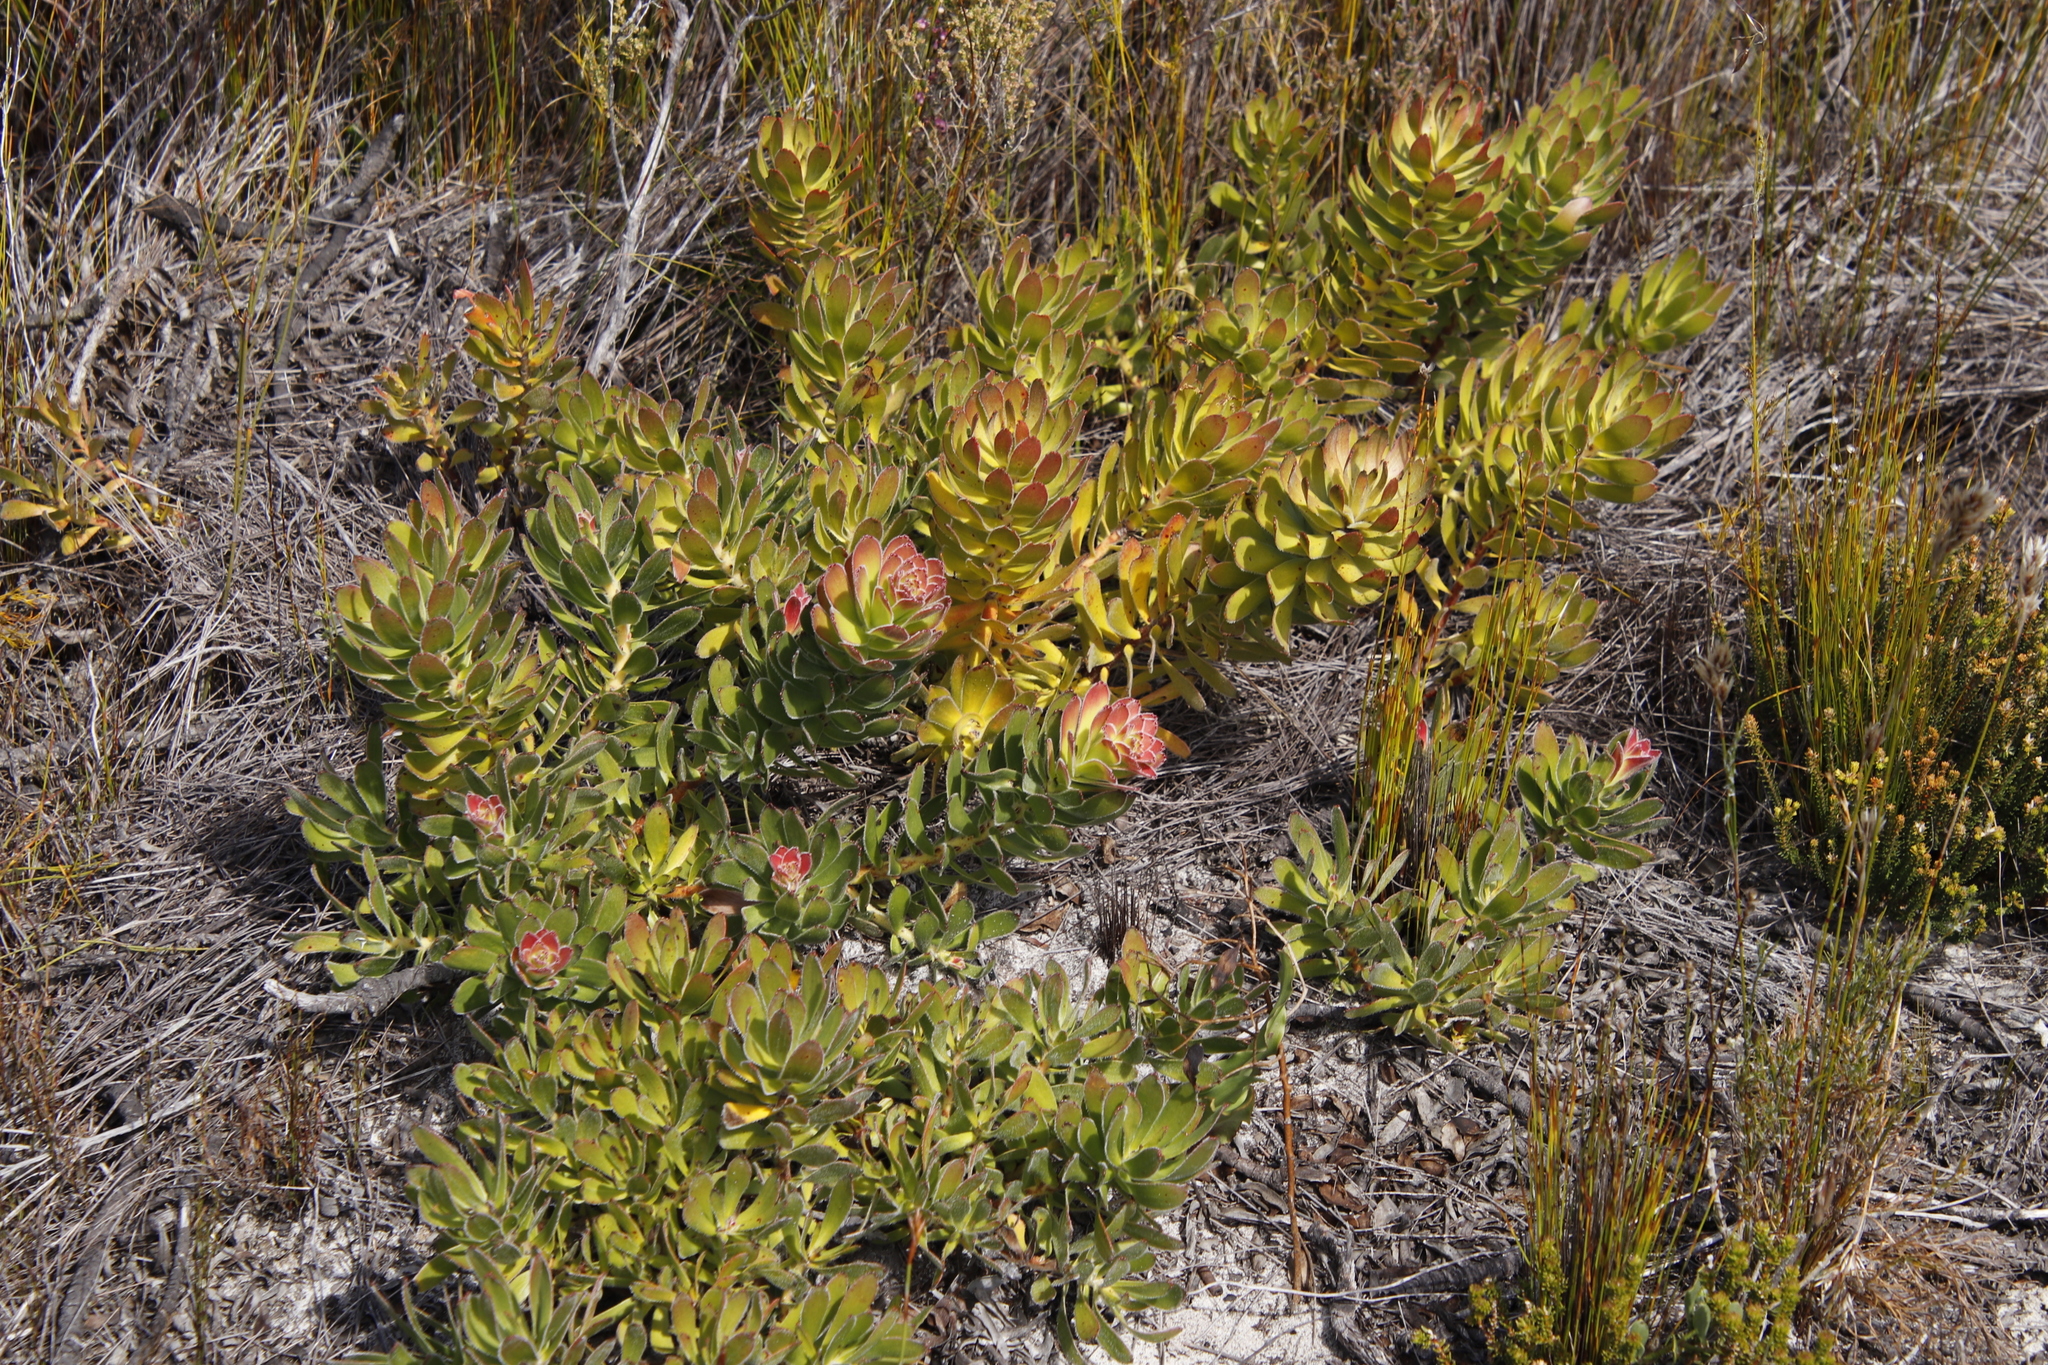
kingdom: Plantae
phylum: Tracheophyta
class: Magnoliopsida
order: Proteales
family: Proteaceae
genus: Mimetes
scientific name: Mimetes cucullatus
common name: Common pagoda
